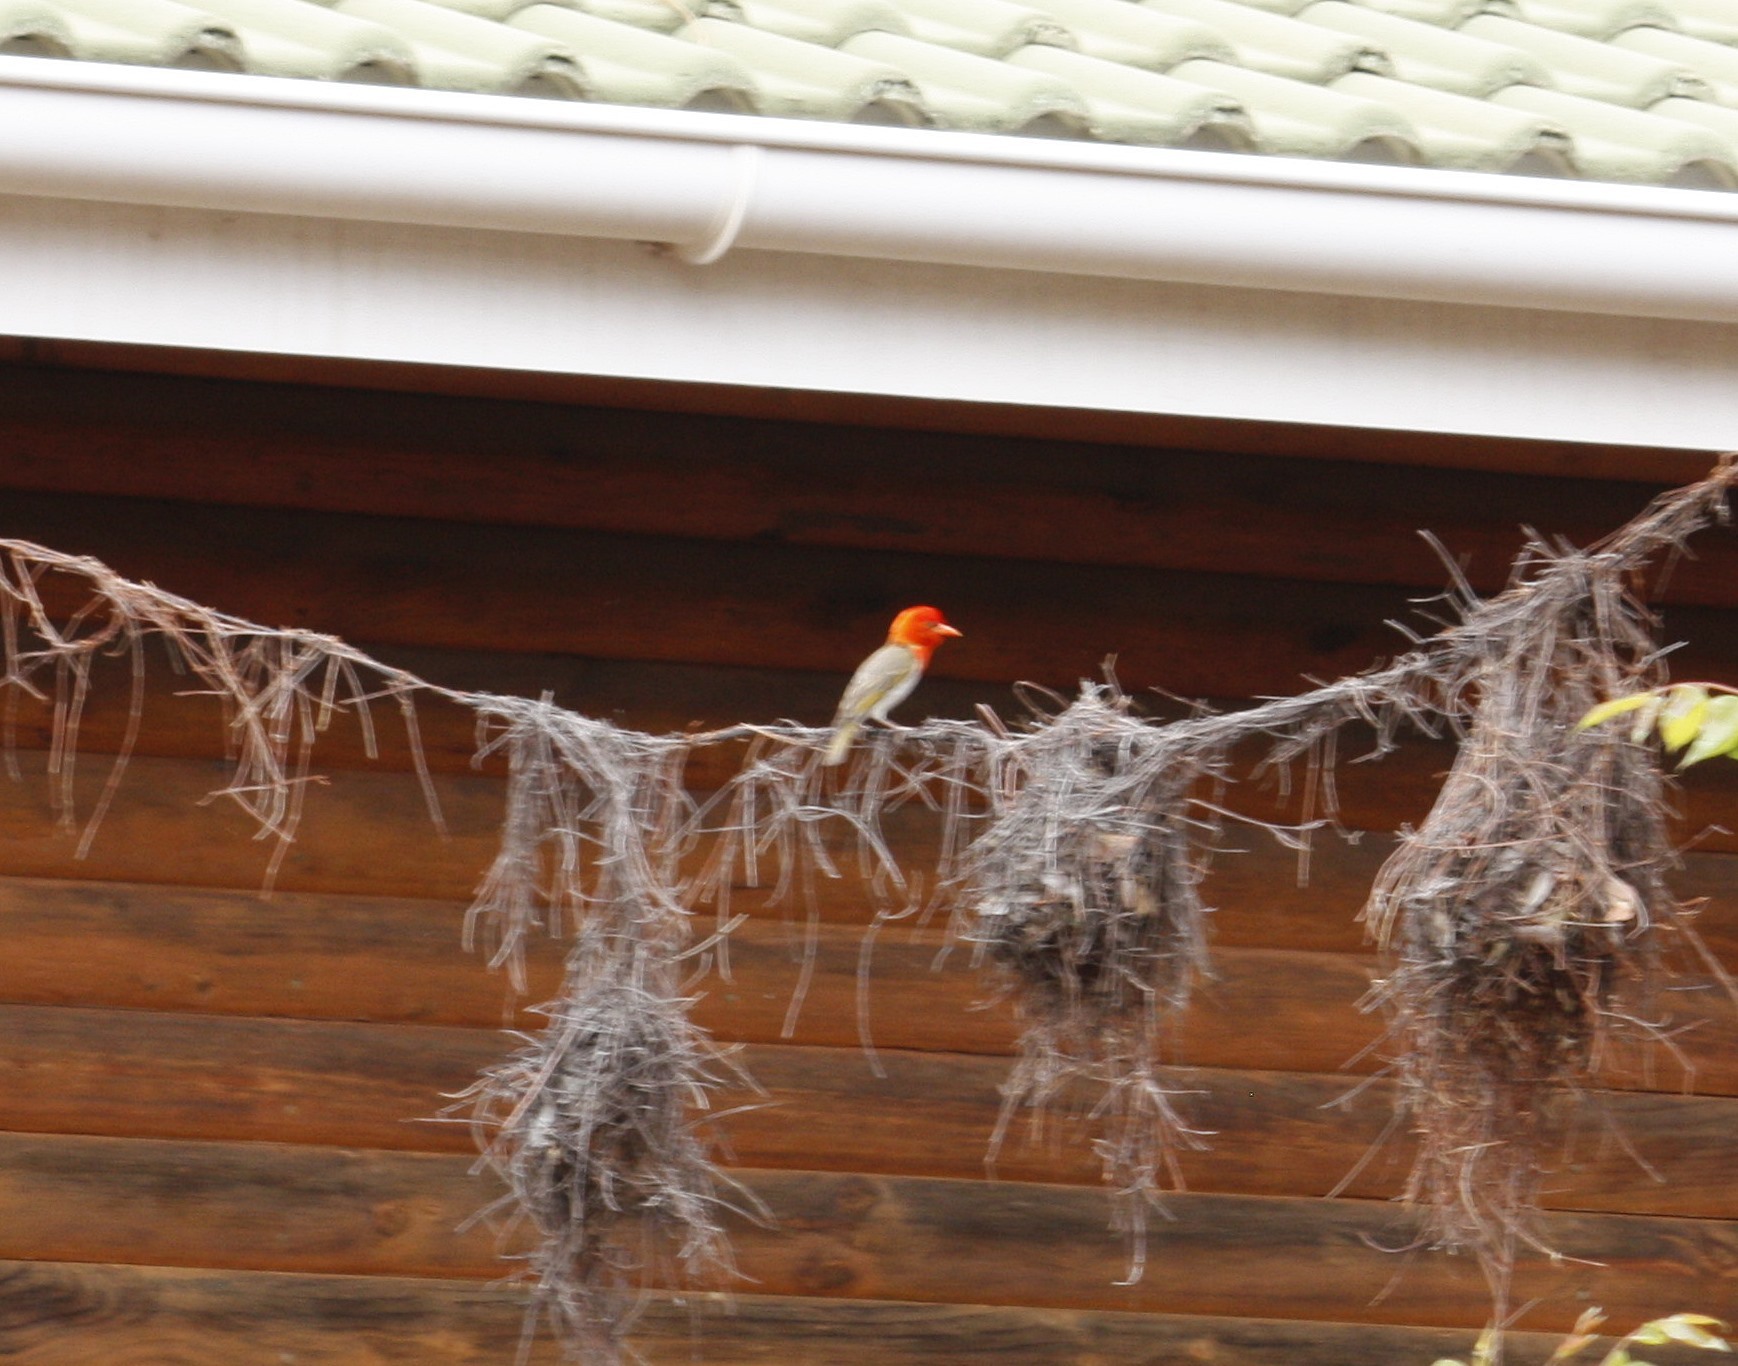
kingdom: Animalia
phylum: Chordata
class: Aves
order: Passeriformes
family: Ploceidae
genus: Anaplectes
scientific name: Anaplectes rubriceps
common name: Red-headed weaver
